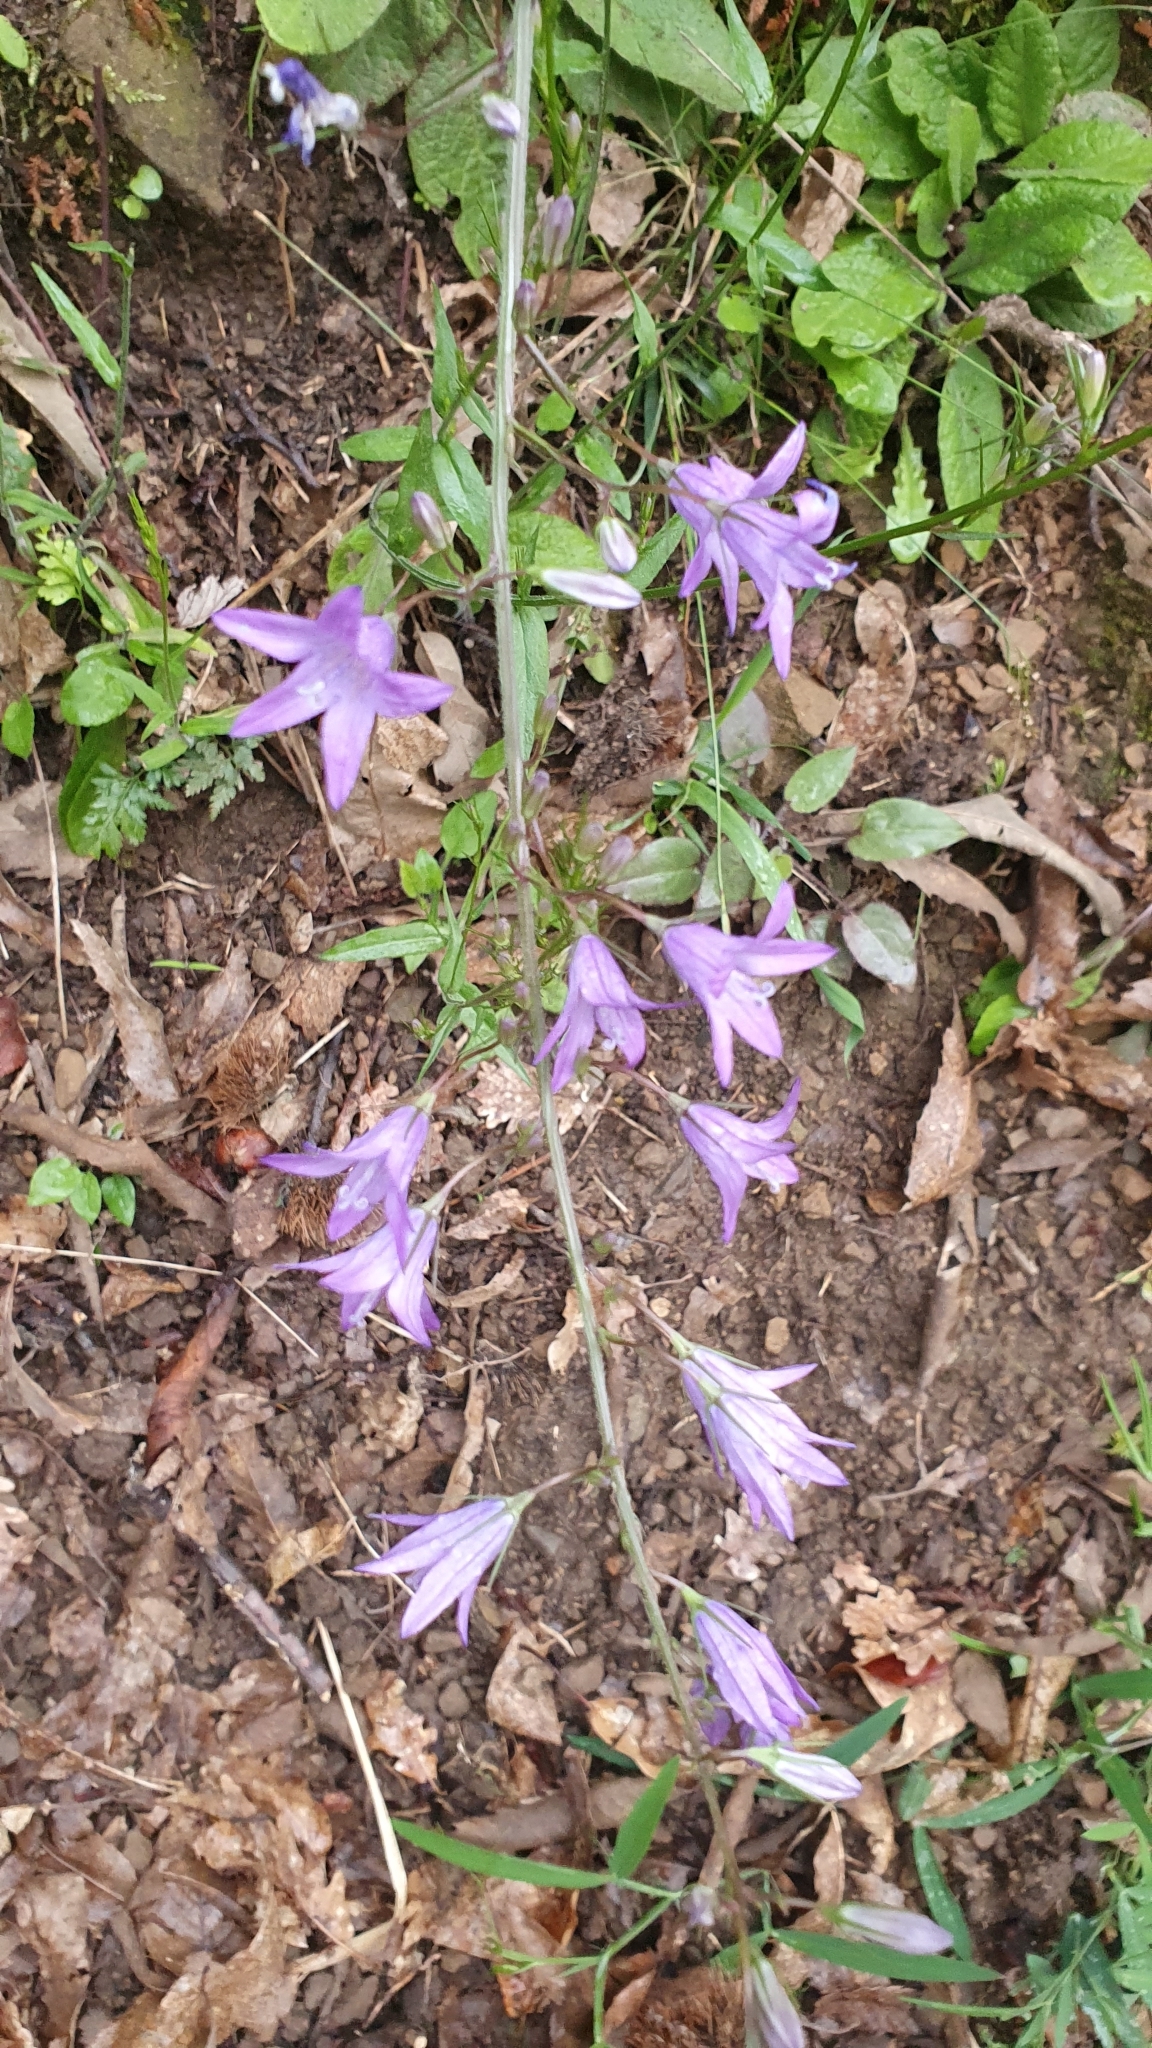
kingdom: Plantae
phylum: Tracheophyta
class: Magnoliopsida
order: Asterales
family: Campanulaceae
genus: Campanula
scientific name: Campanula rapunculus
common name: Rampion bellflower
